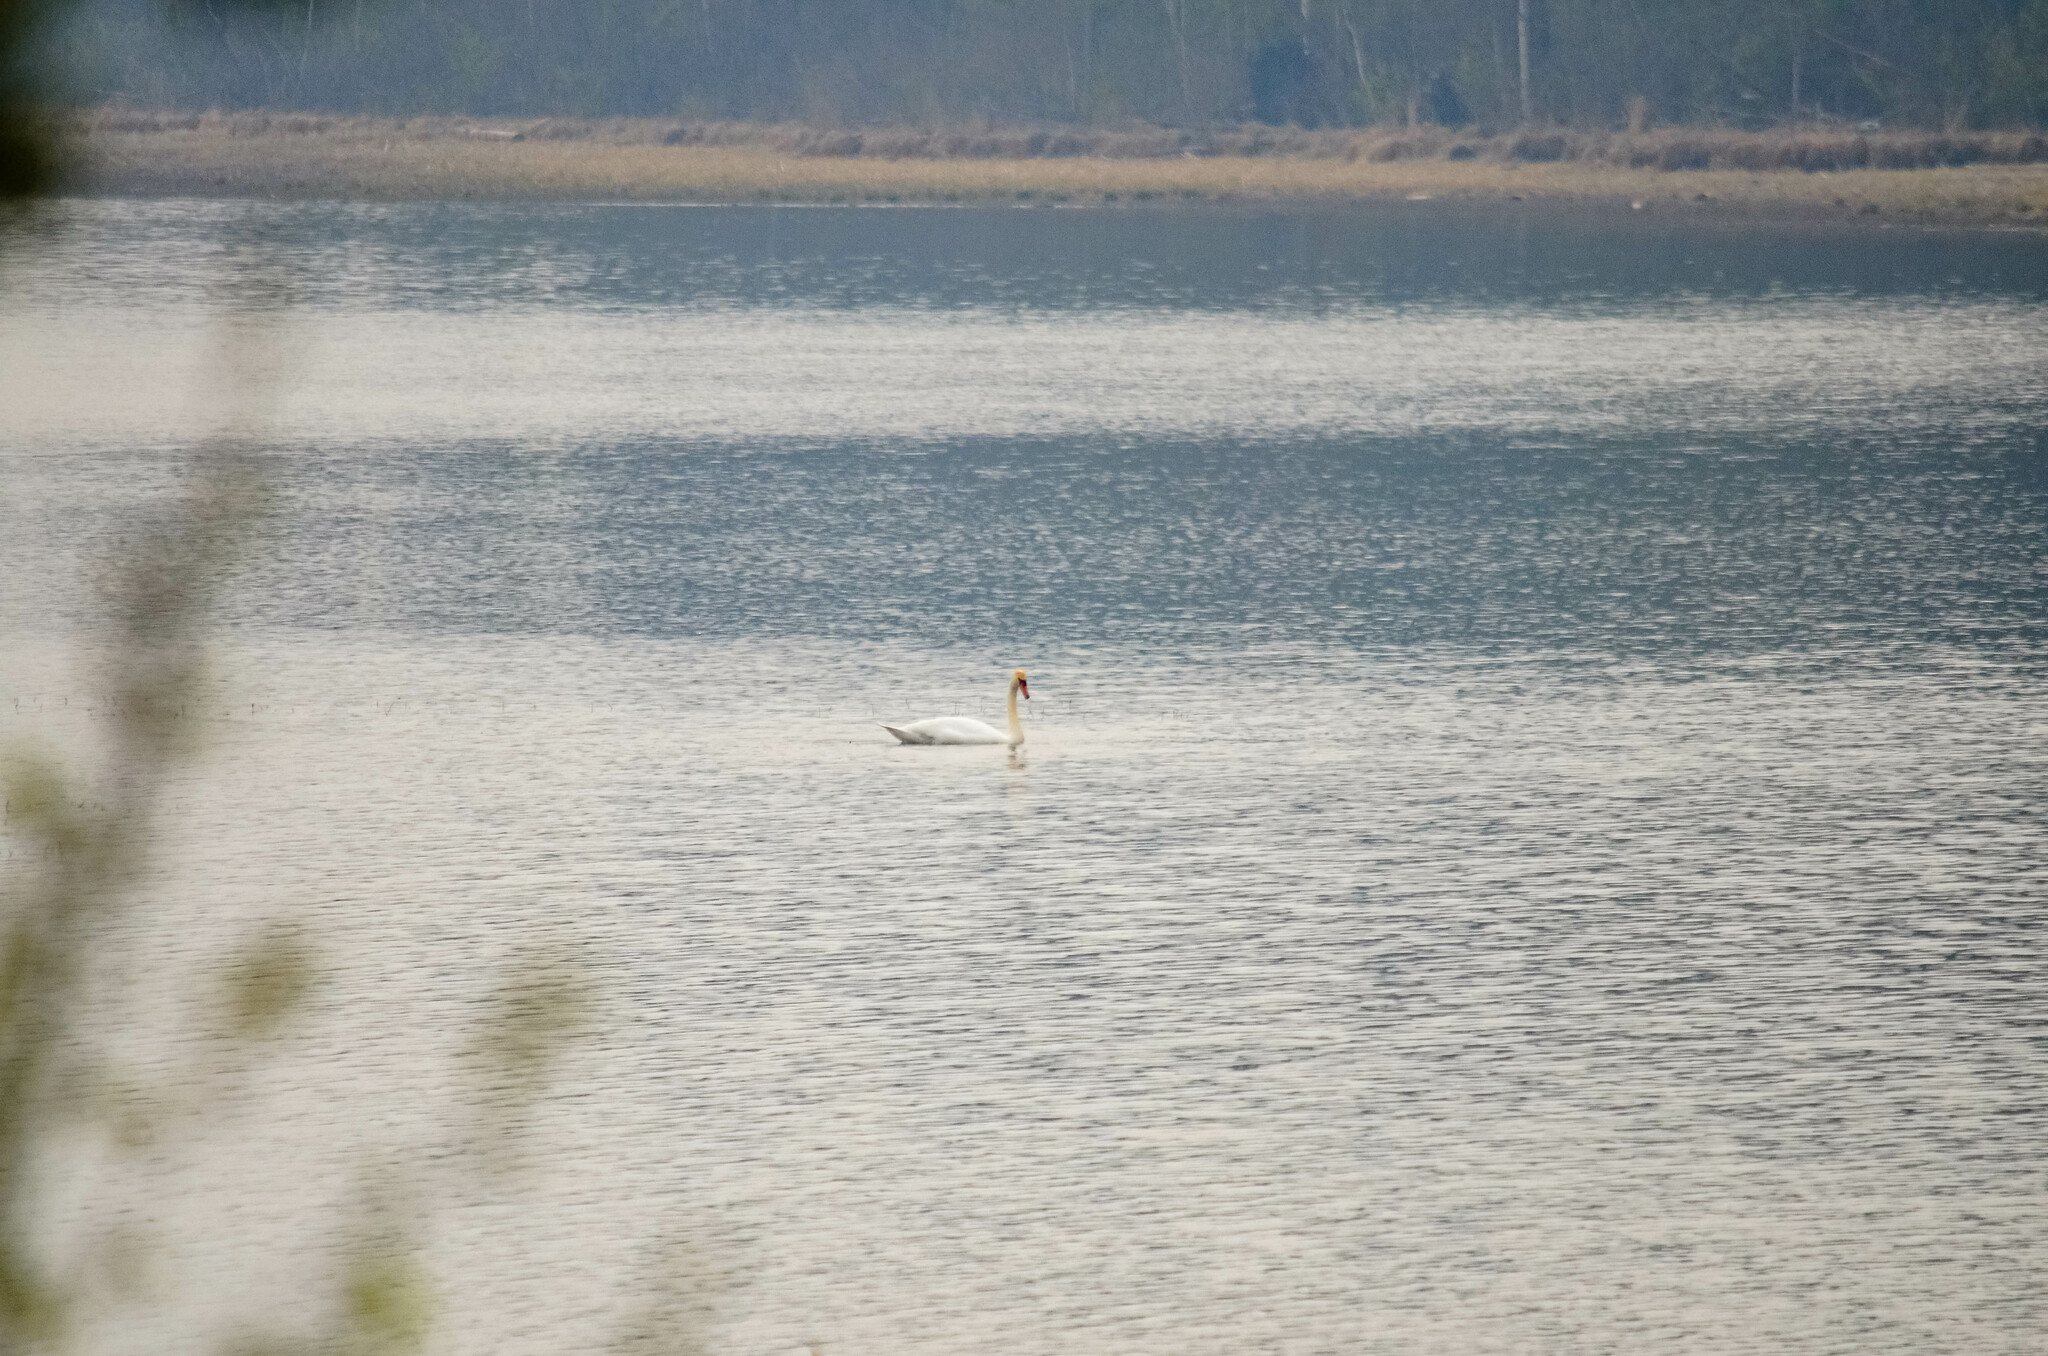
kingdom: Animalia
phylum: Chordata
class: Aves
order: Anseriformes
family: Anatidae
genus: Cygnus
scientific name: Cygnus olor
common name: Mute swan
